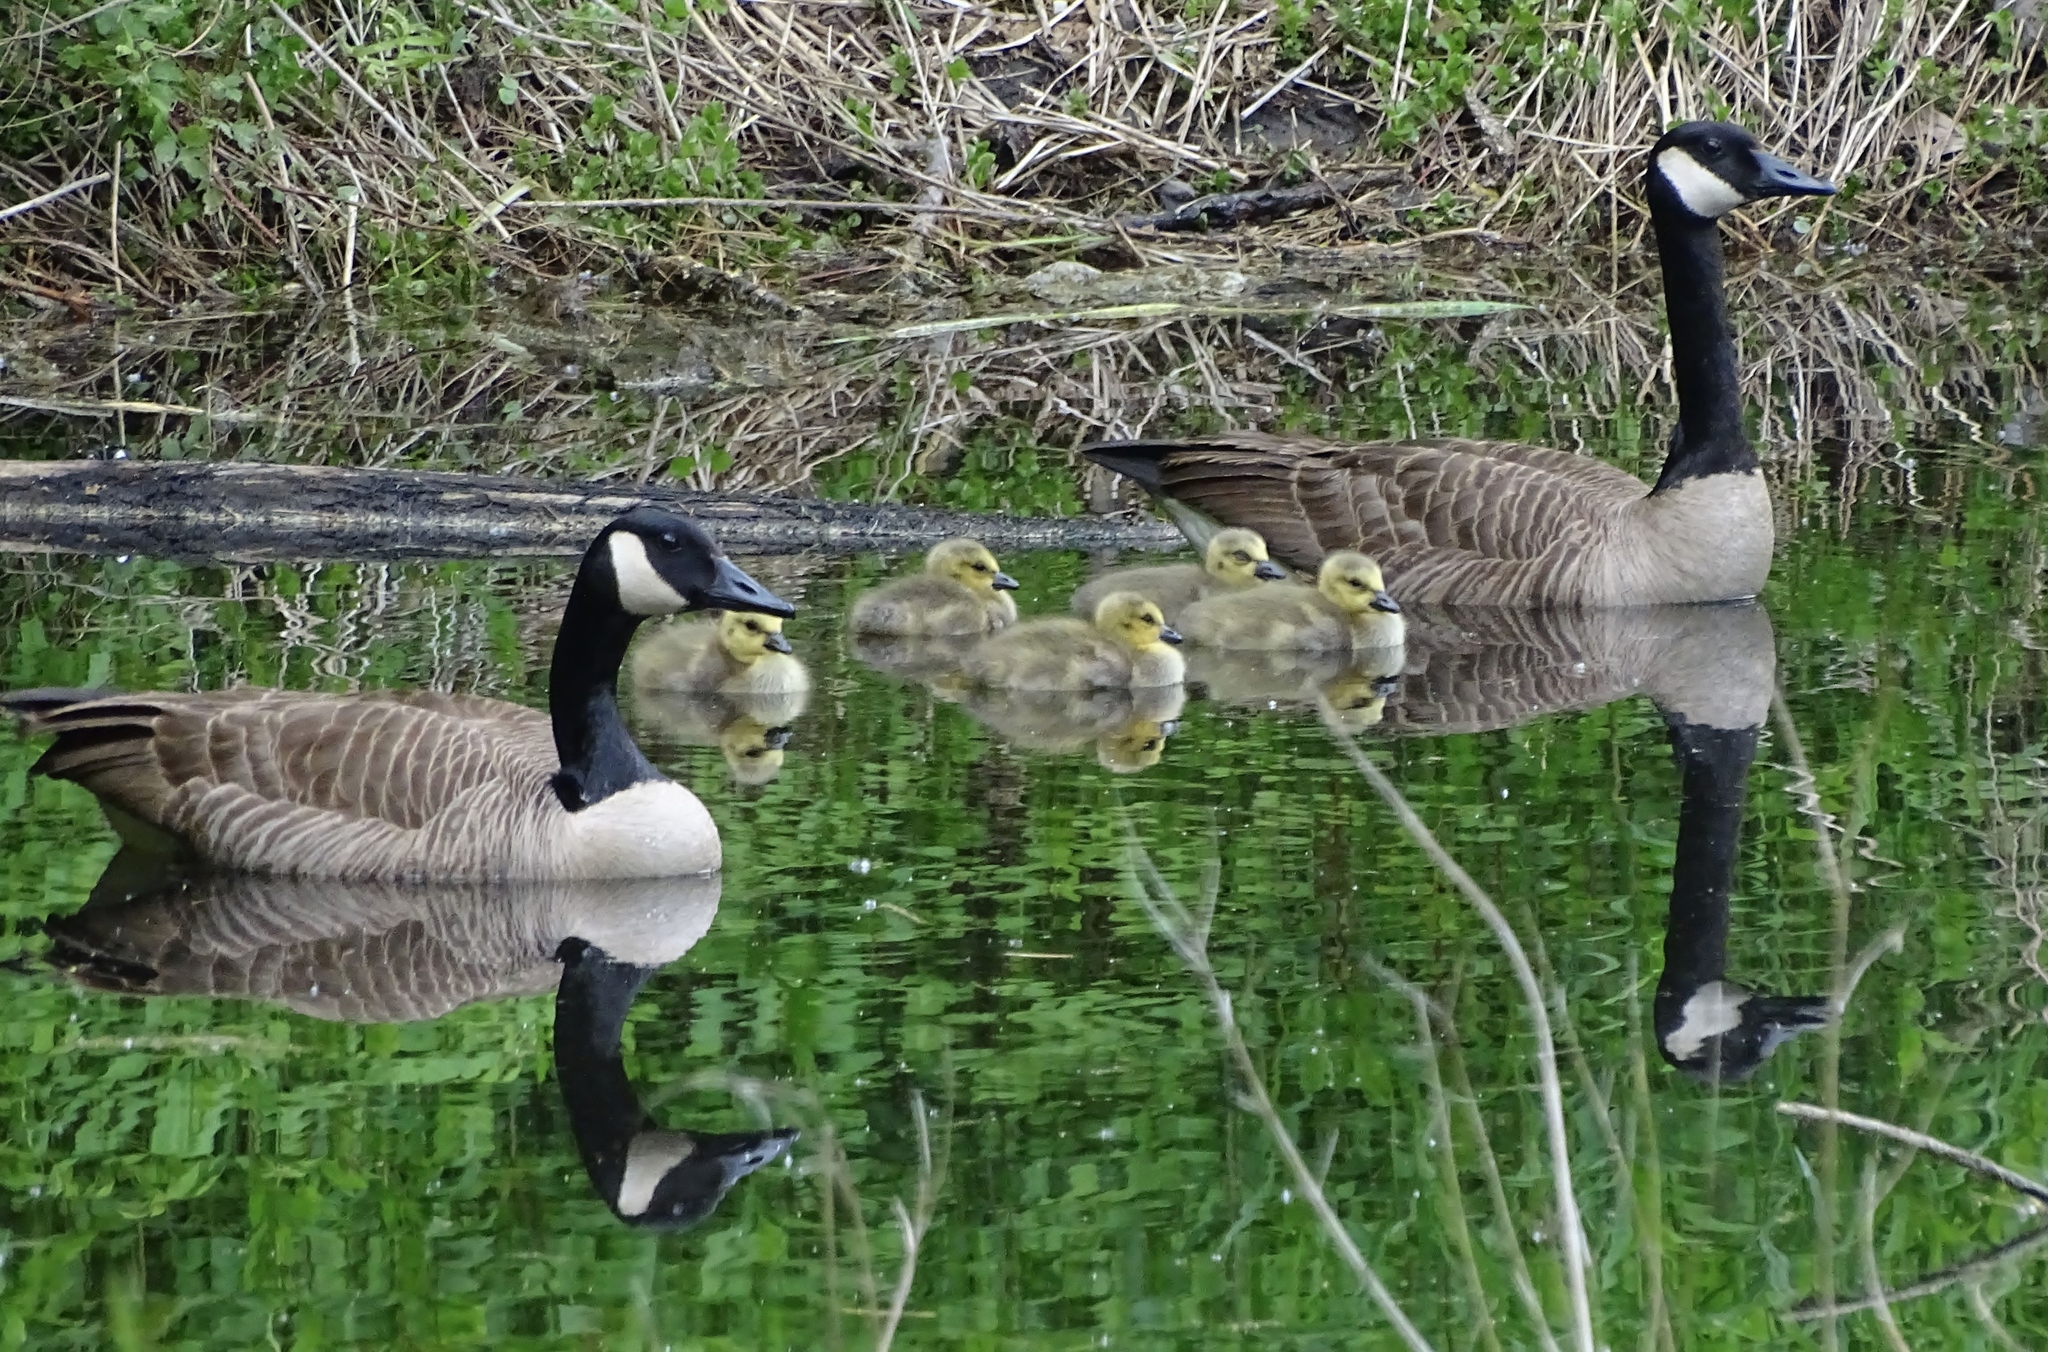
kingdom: Animalia
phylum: Chordata
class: Aves
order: Anseriformes
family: Anatidae
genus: Branta
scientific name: Branta canadensis
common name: Canada goose
